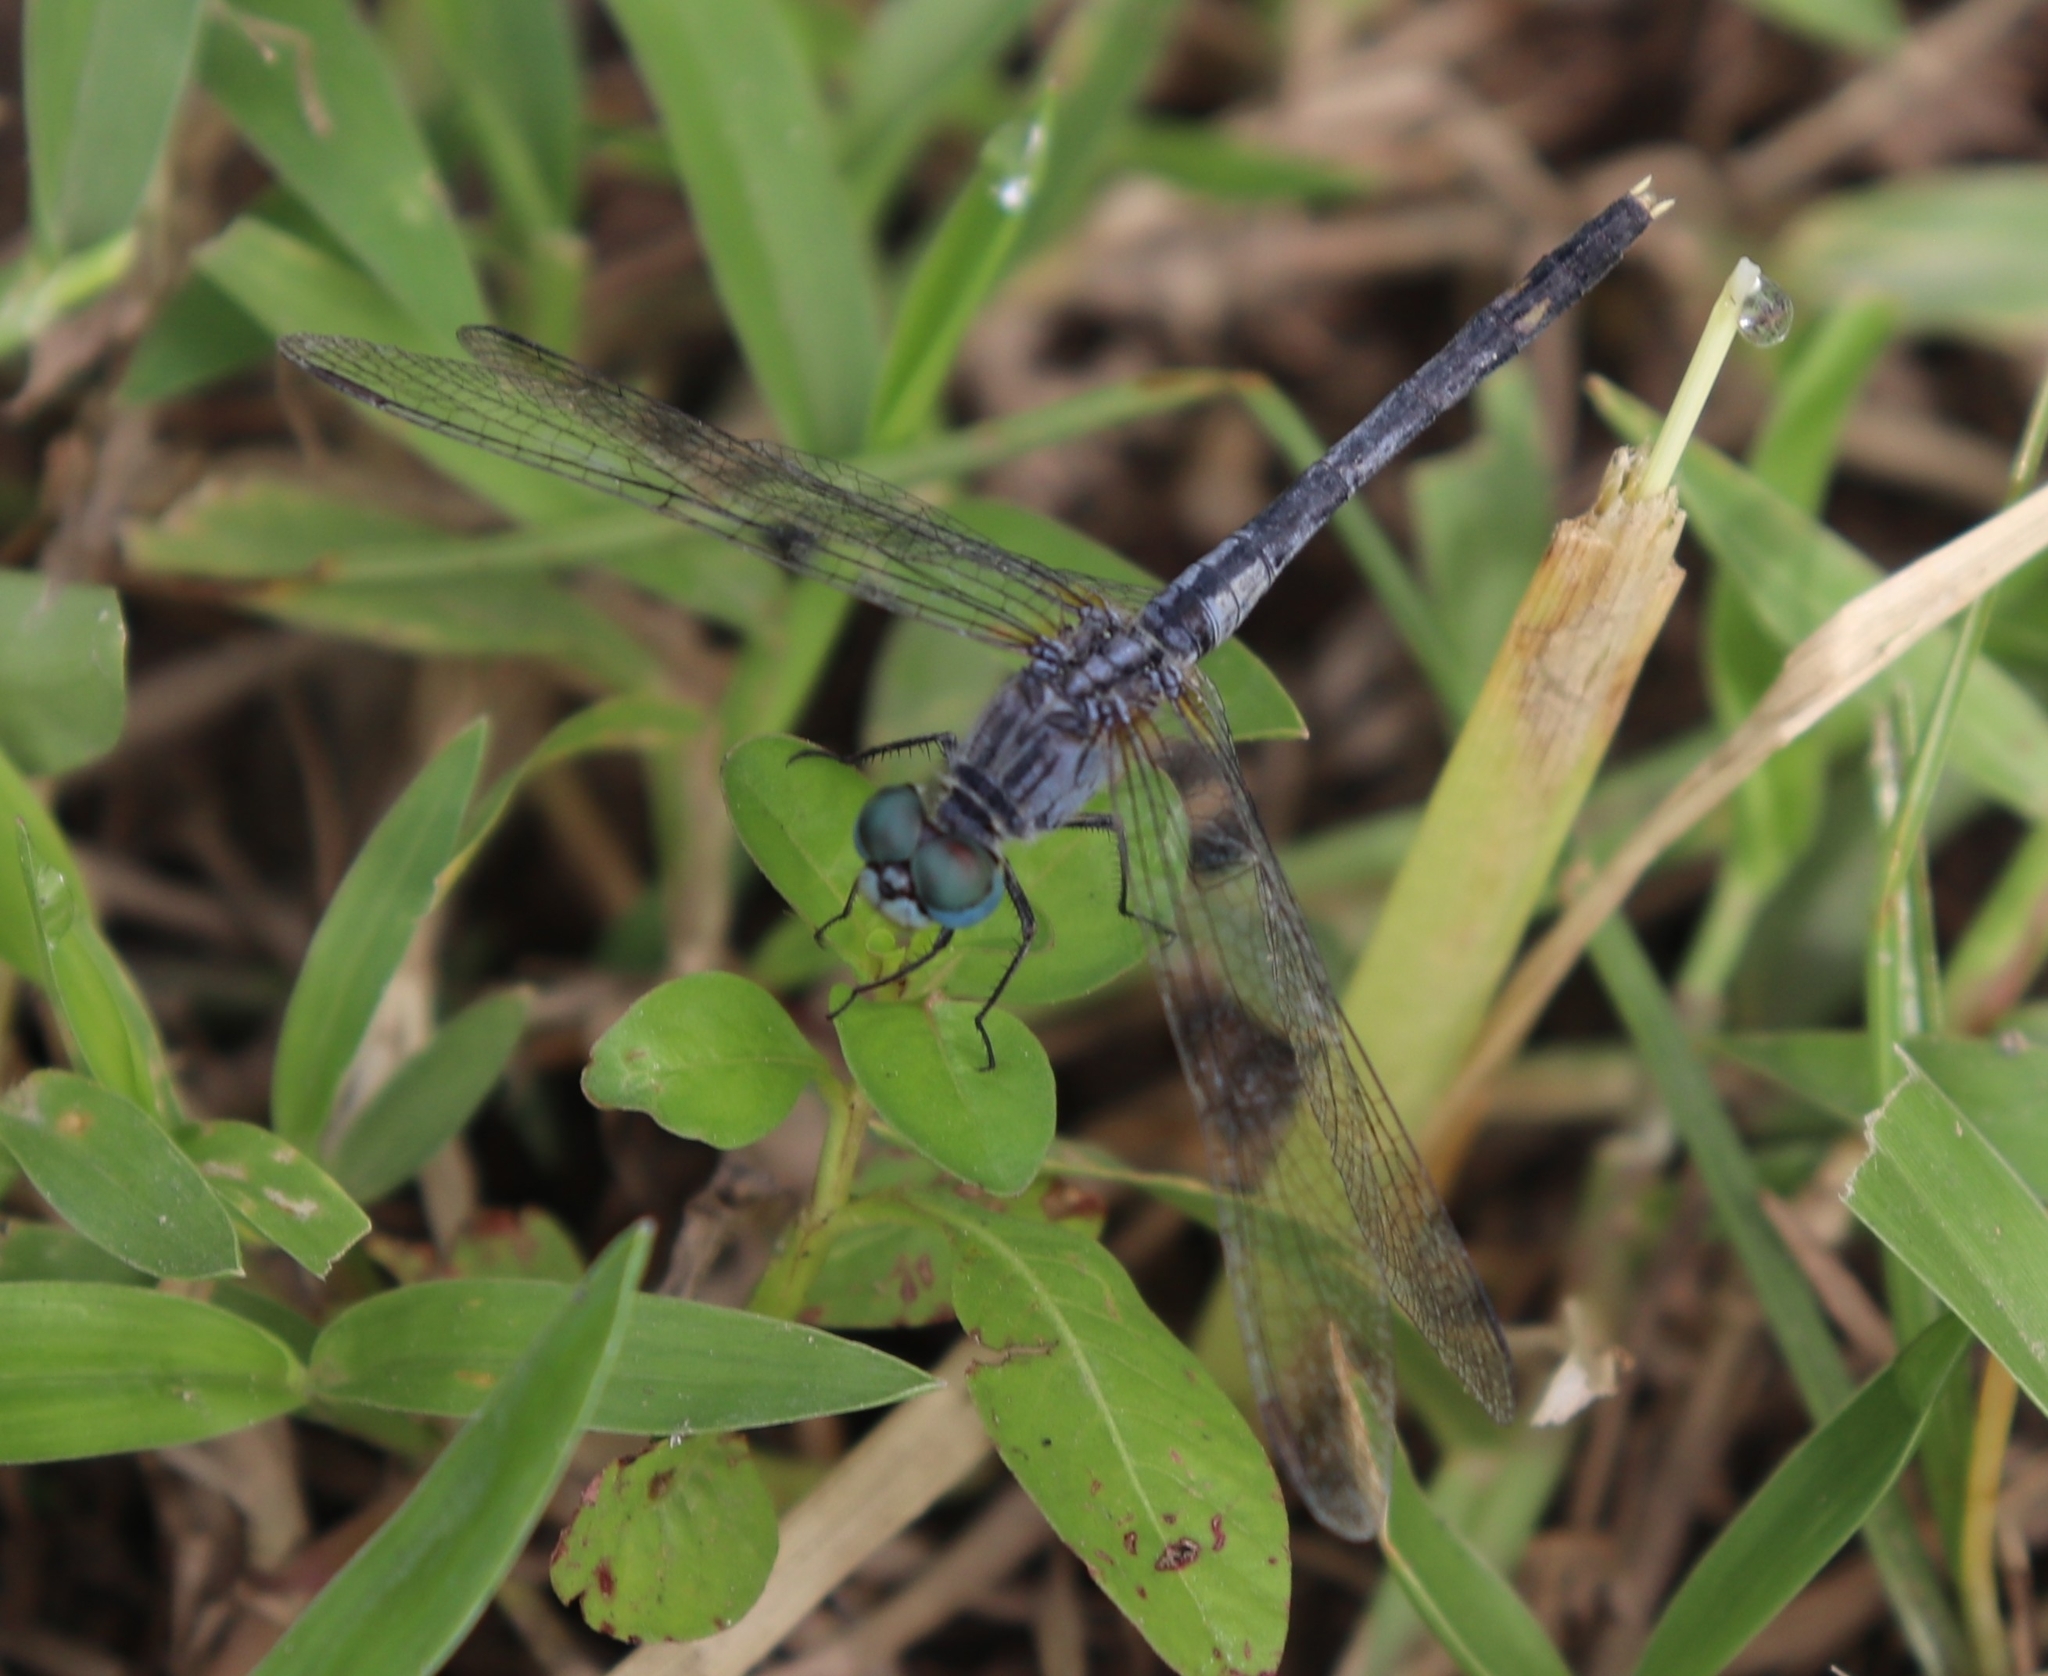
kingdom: Animalia
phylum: Arthropoda
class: Insecta
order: Odonata
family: Libellulidae
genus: Diplacodes
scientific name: Diplacodes trivialis
